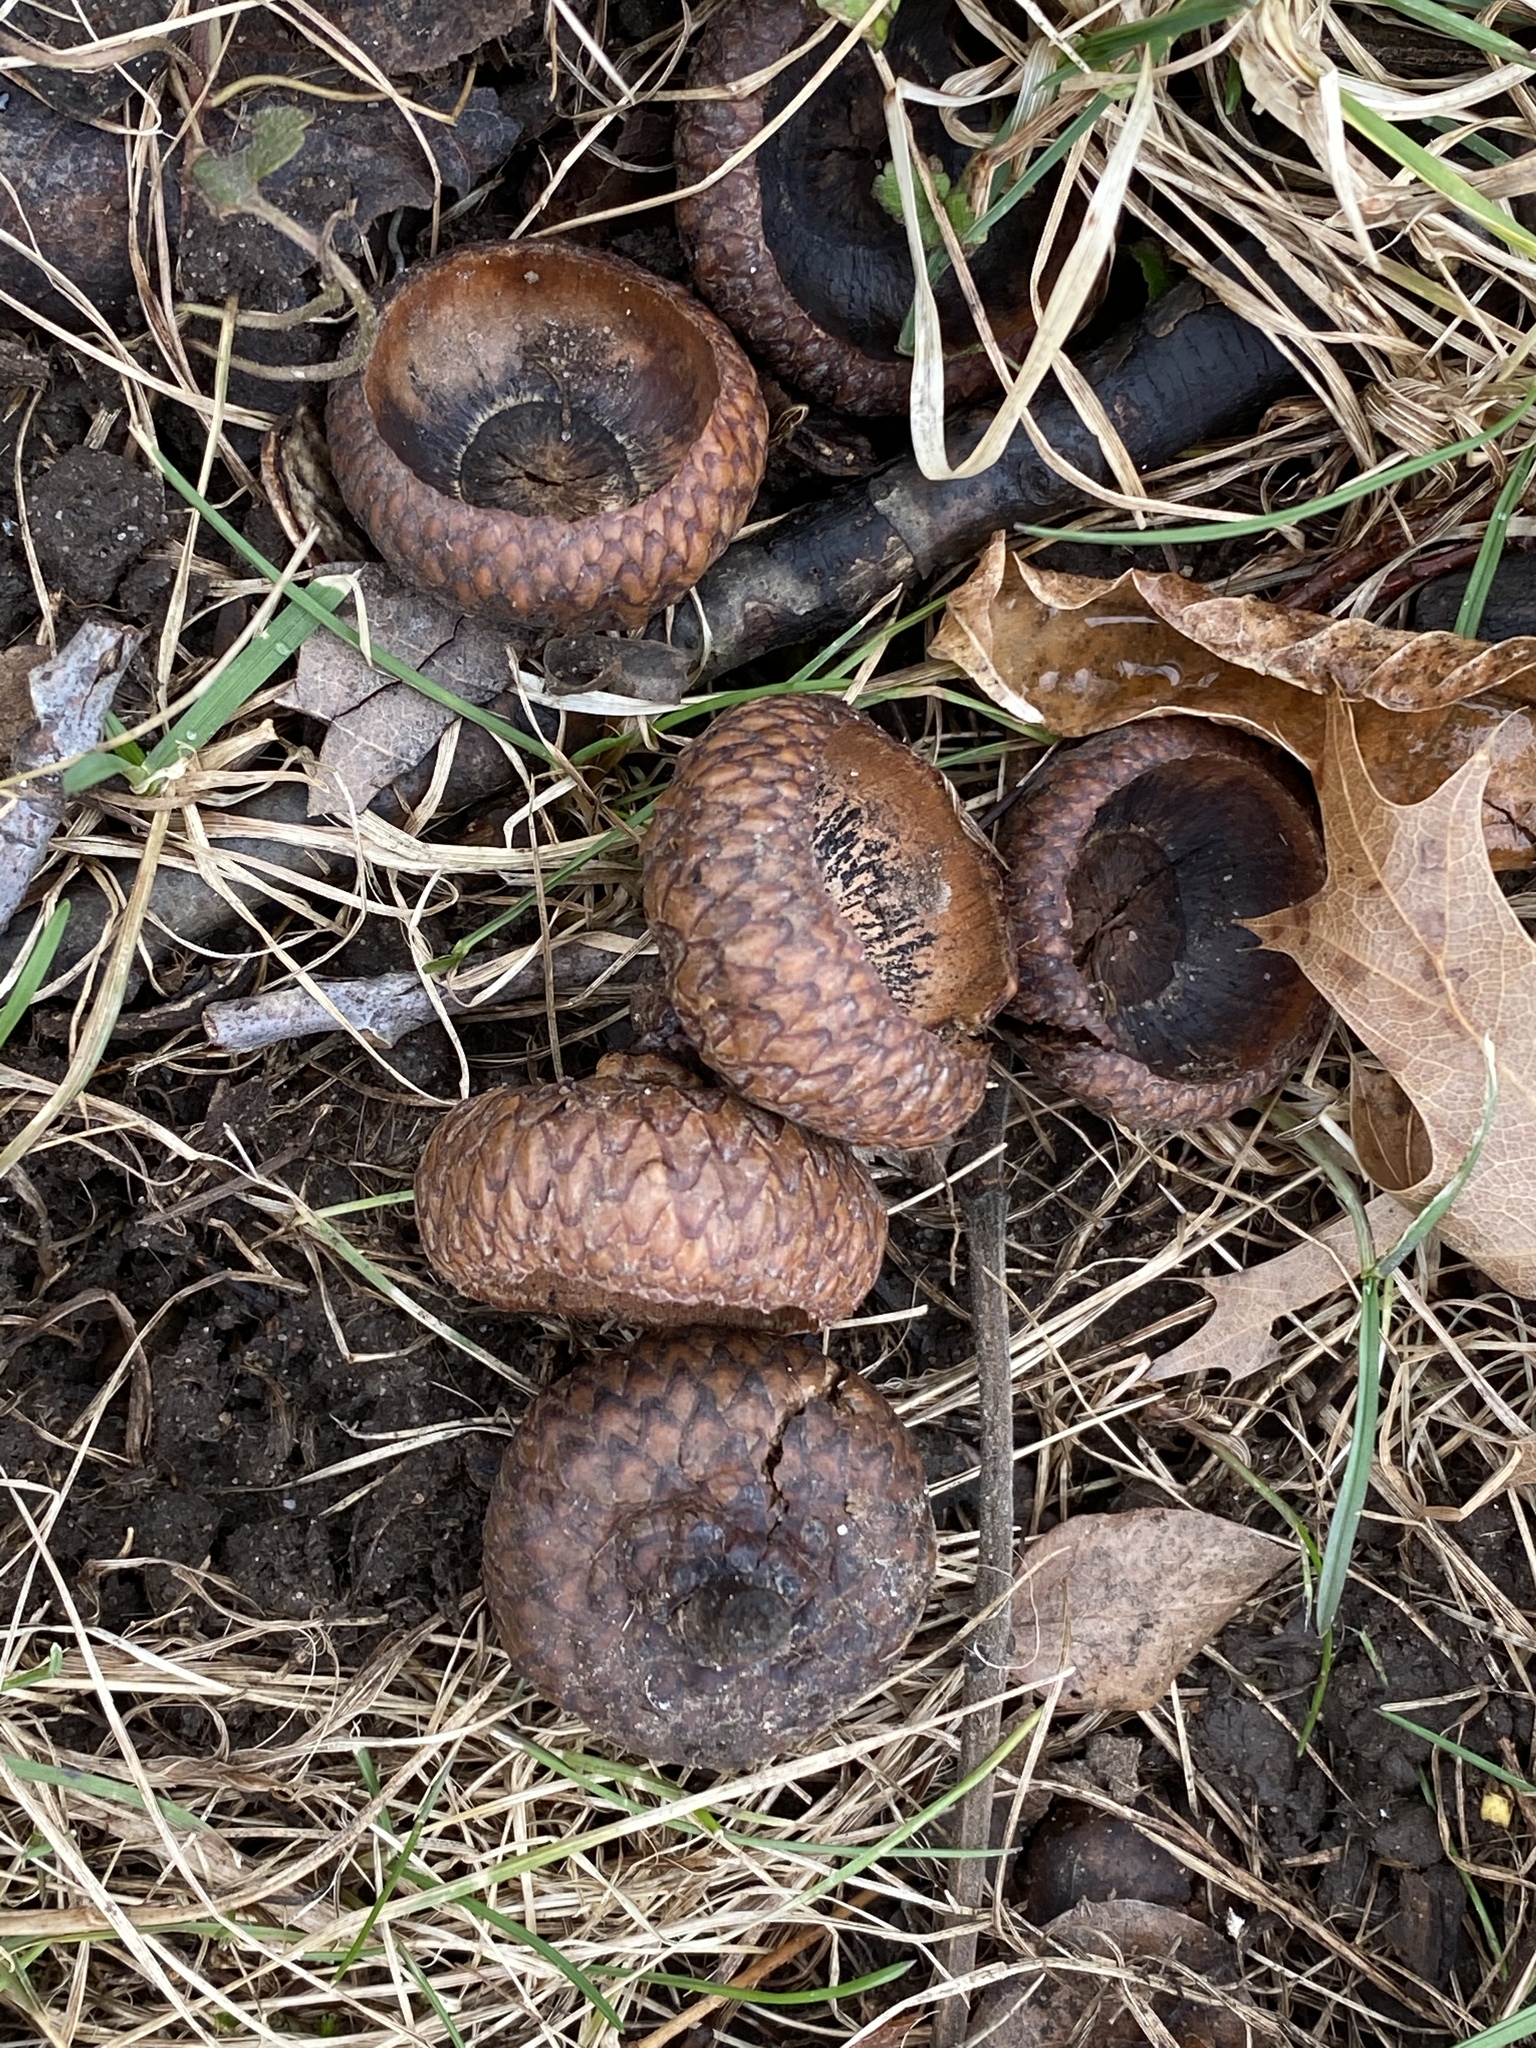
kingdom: Plantae
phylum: Tracheophyta
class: Magnoliopsida
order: Fagales
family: Fagaceae
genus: Quercus
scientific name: Quercus rubra
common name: Red oak
